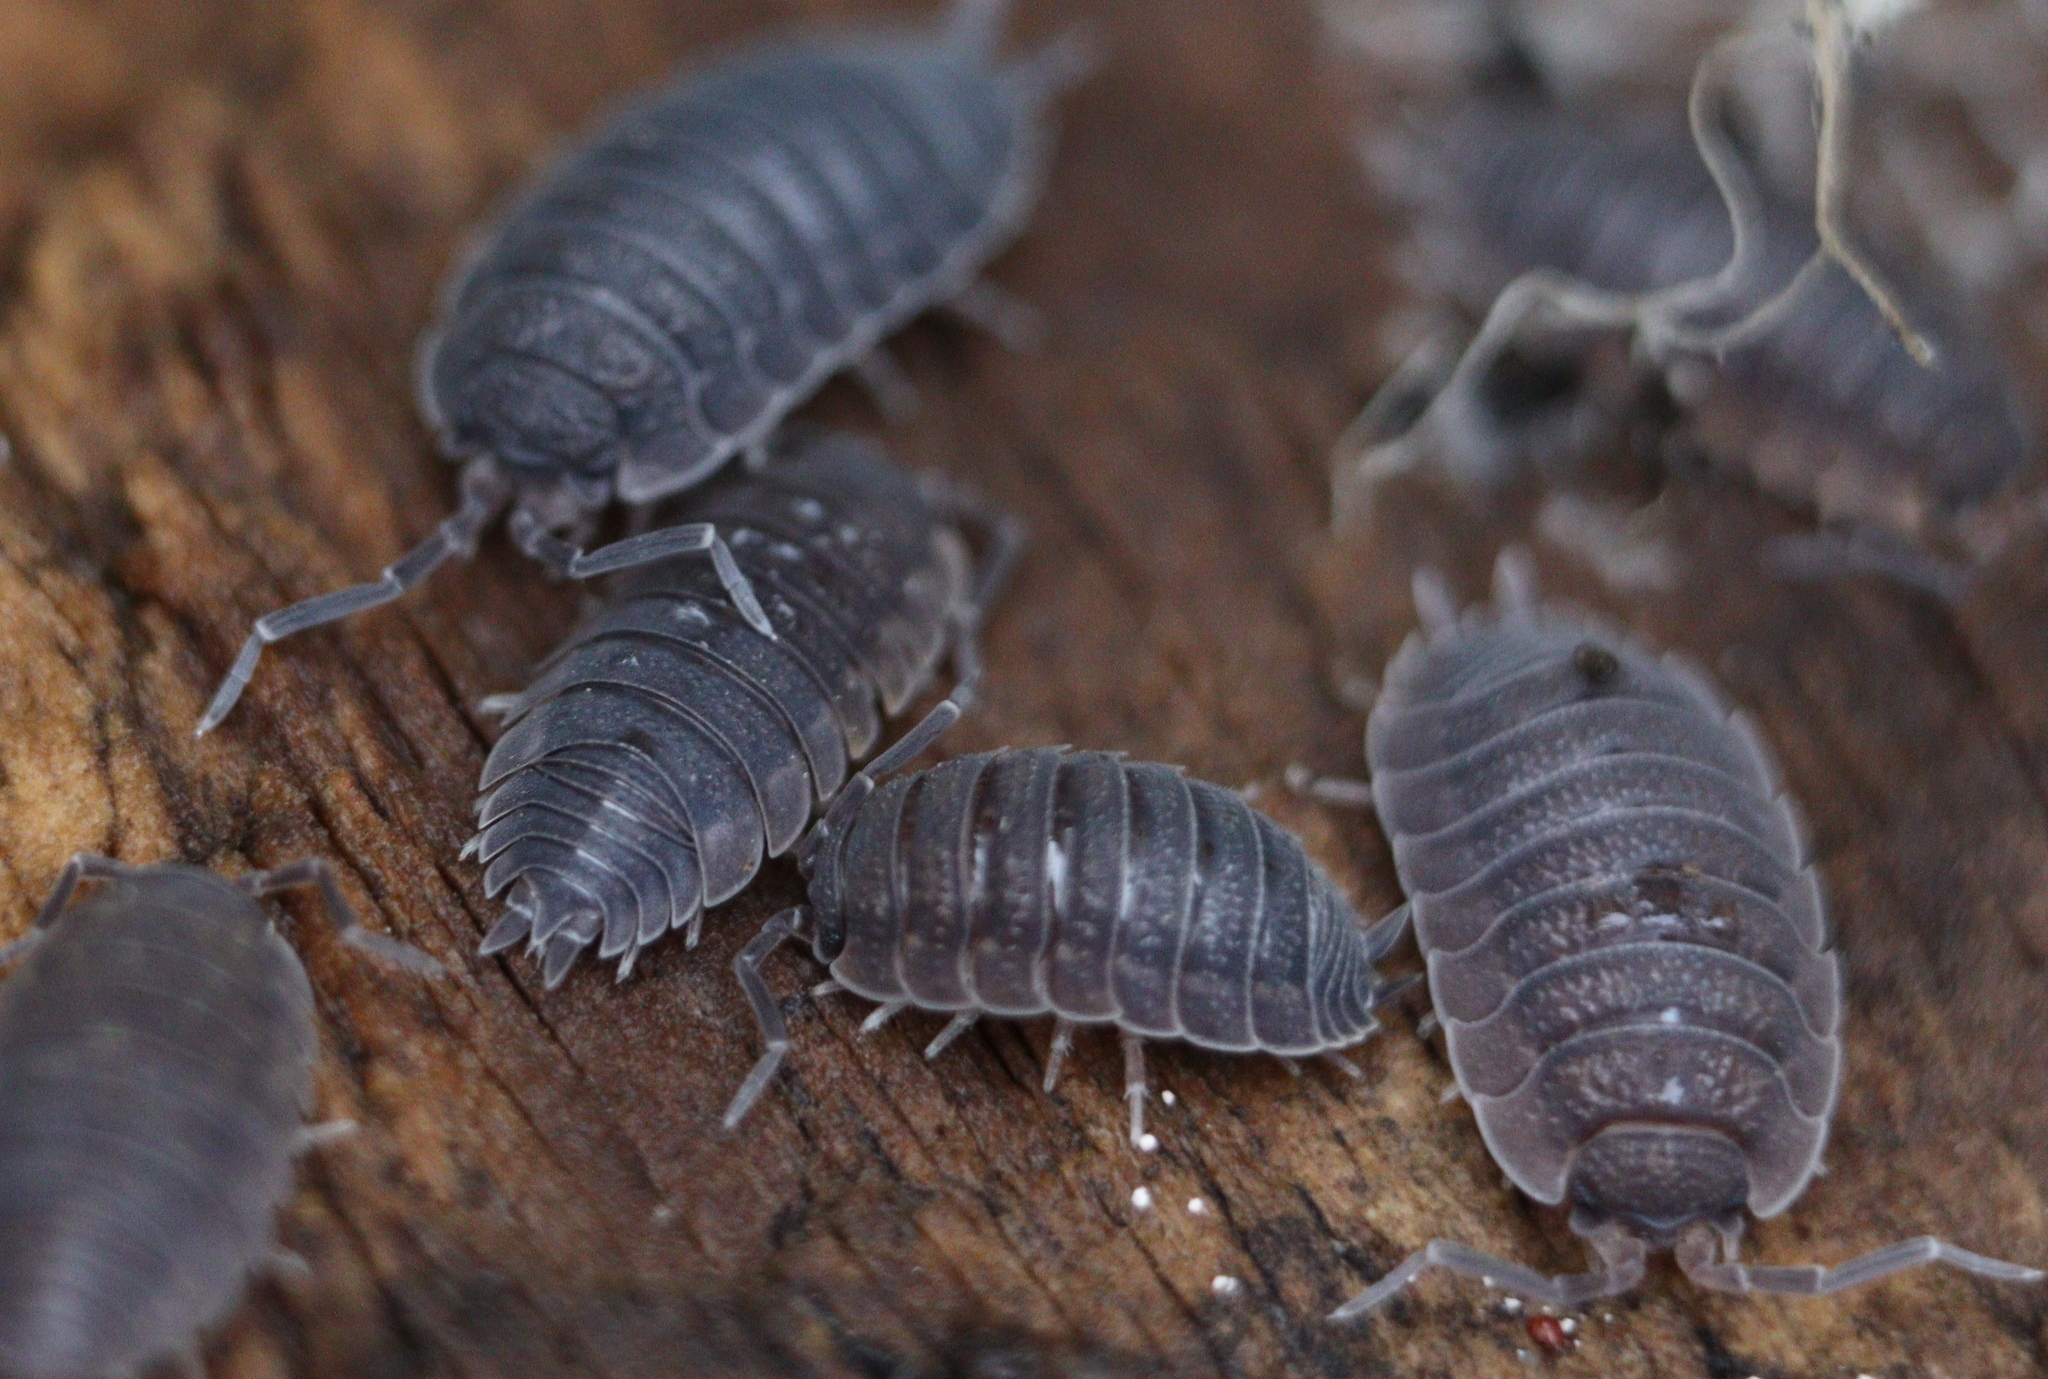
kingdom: Animalia
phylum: Arthropoda
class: Malacostraca
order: Isopoda
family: Porcellionidae
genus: Porcellio
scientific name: Porcellio scaber
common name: Common rough woodlouse
